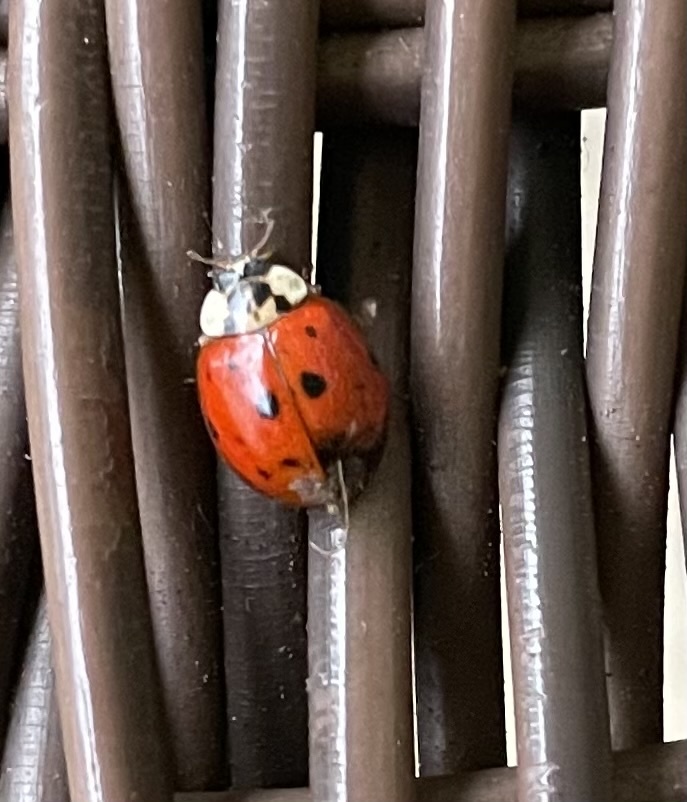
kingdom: Animalia
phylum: Arthropoda
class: Insecta
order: Coleoptera
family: Coccinellidae
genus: Harmonia
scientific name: Harmonia axyridis
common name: Harlequin ladybird
